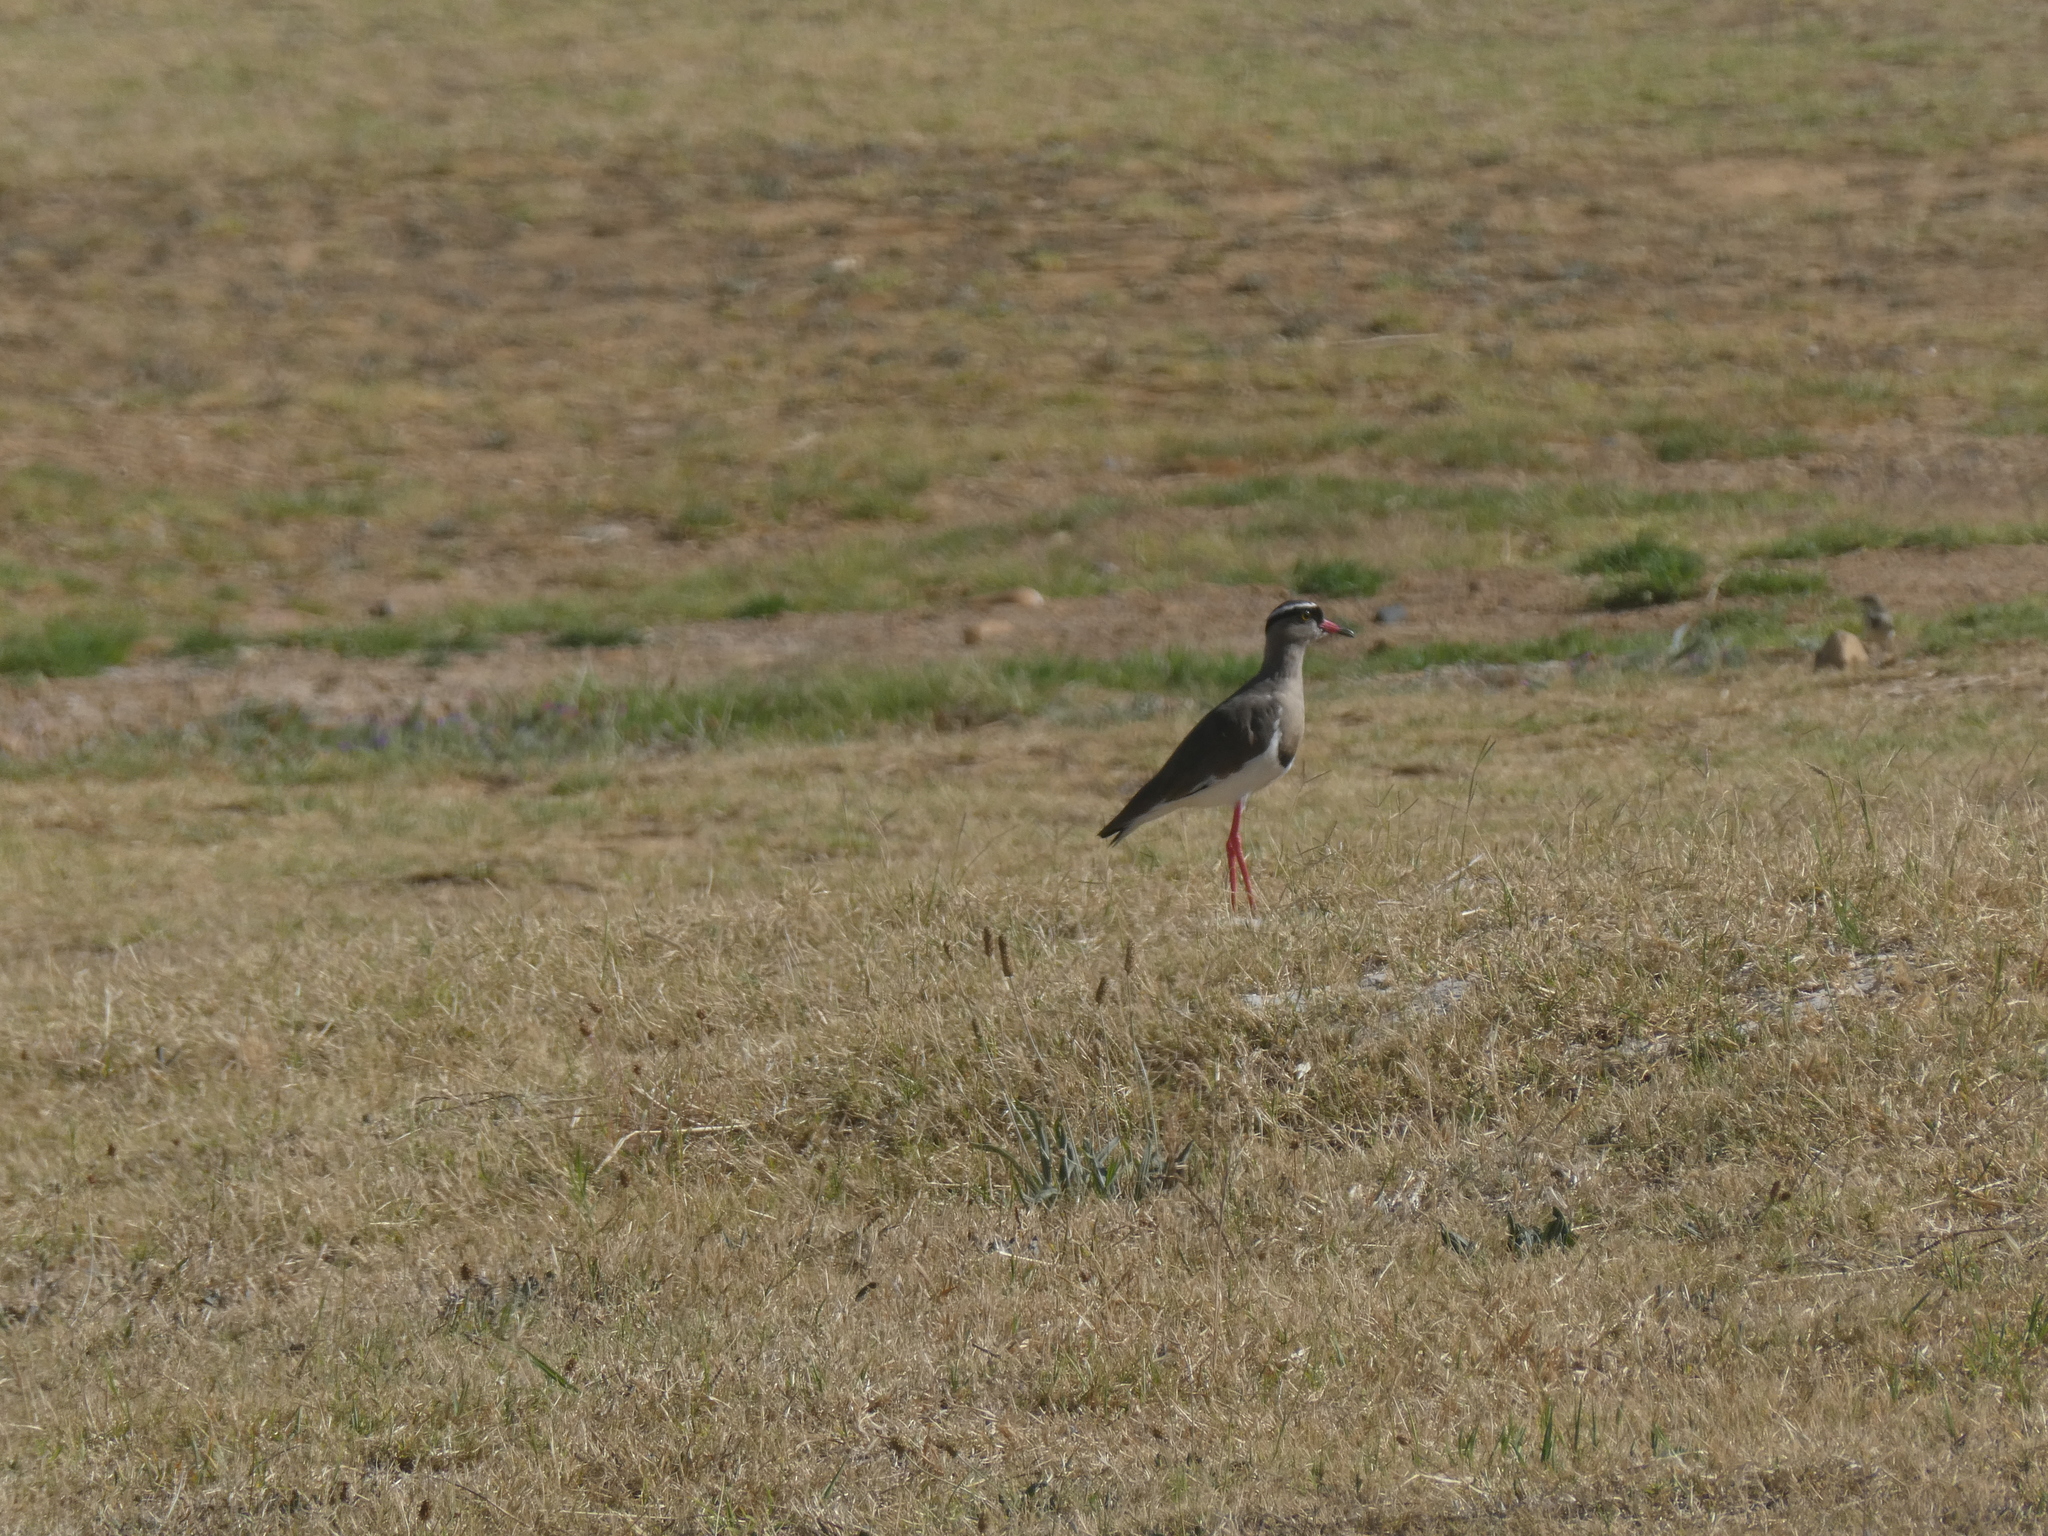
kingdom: Animalia
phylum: Chordata
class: Aves
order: Charadriiformes
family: Charadriidae
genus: Vanellus
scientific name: Vanellus coronatus
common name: Crowned lapwing
